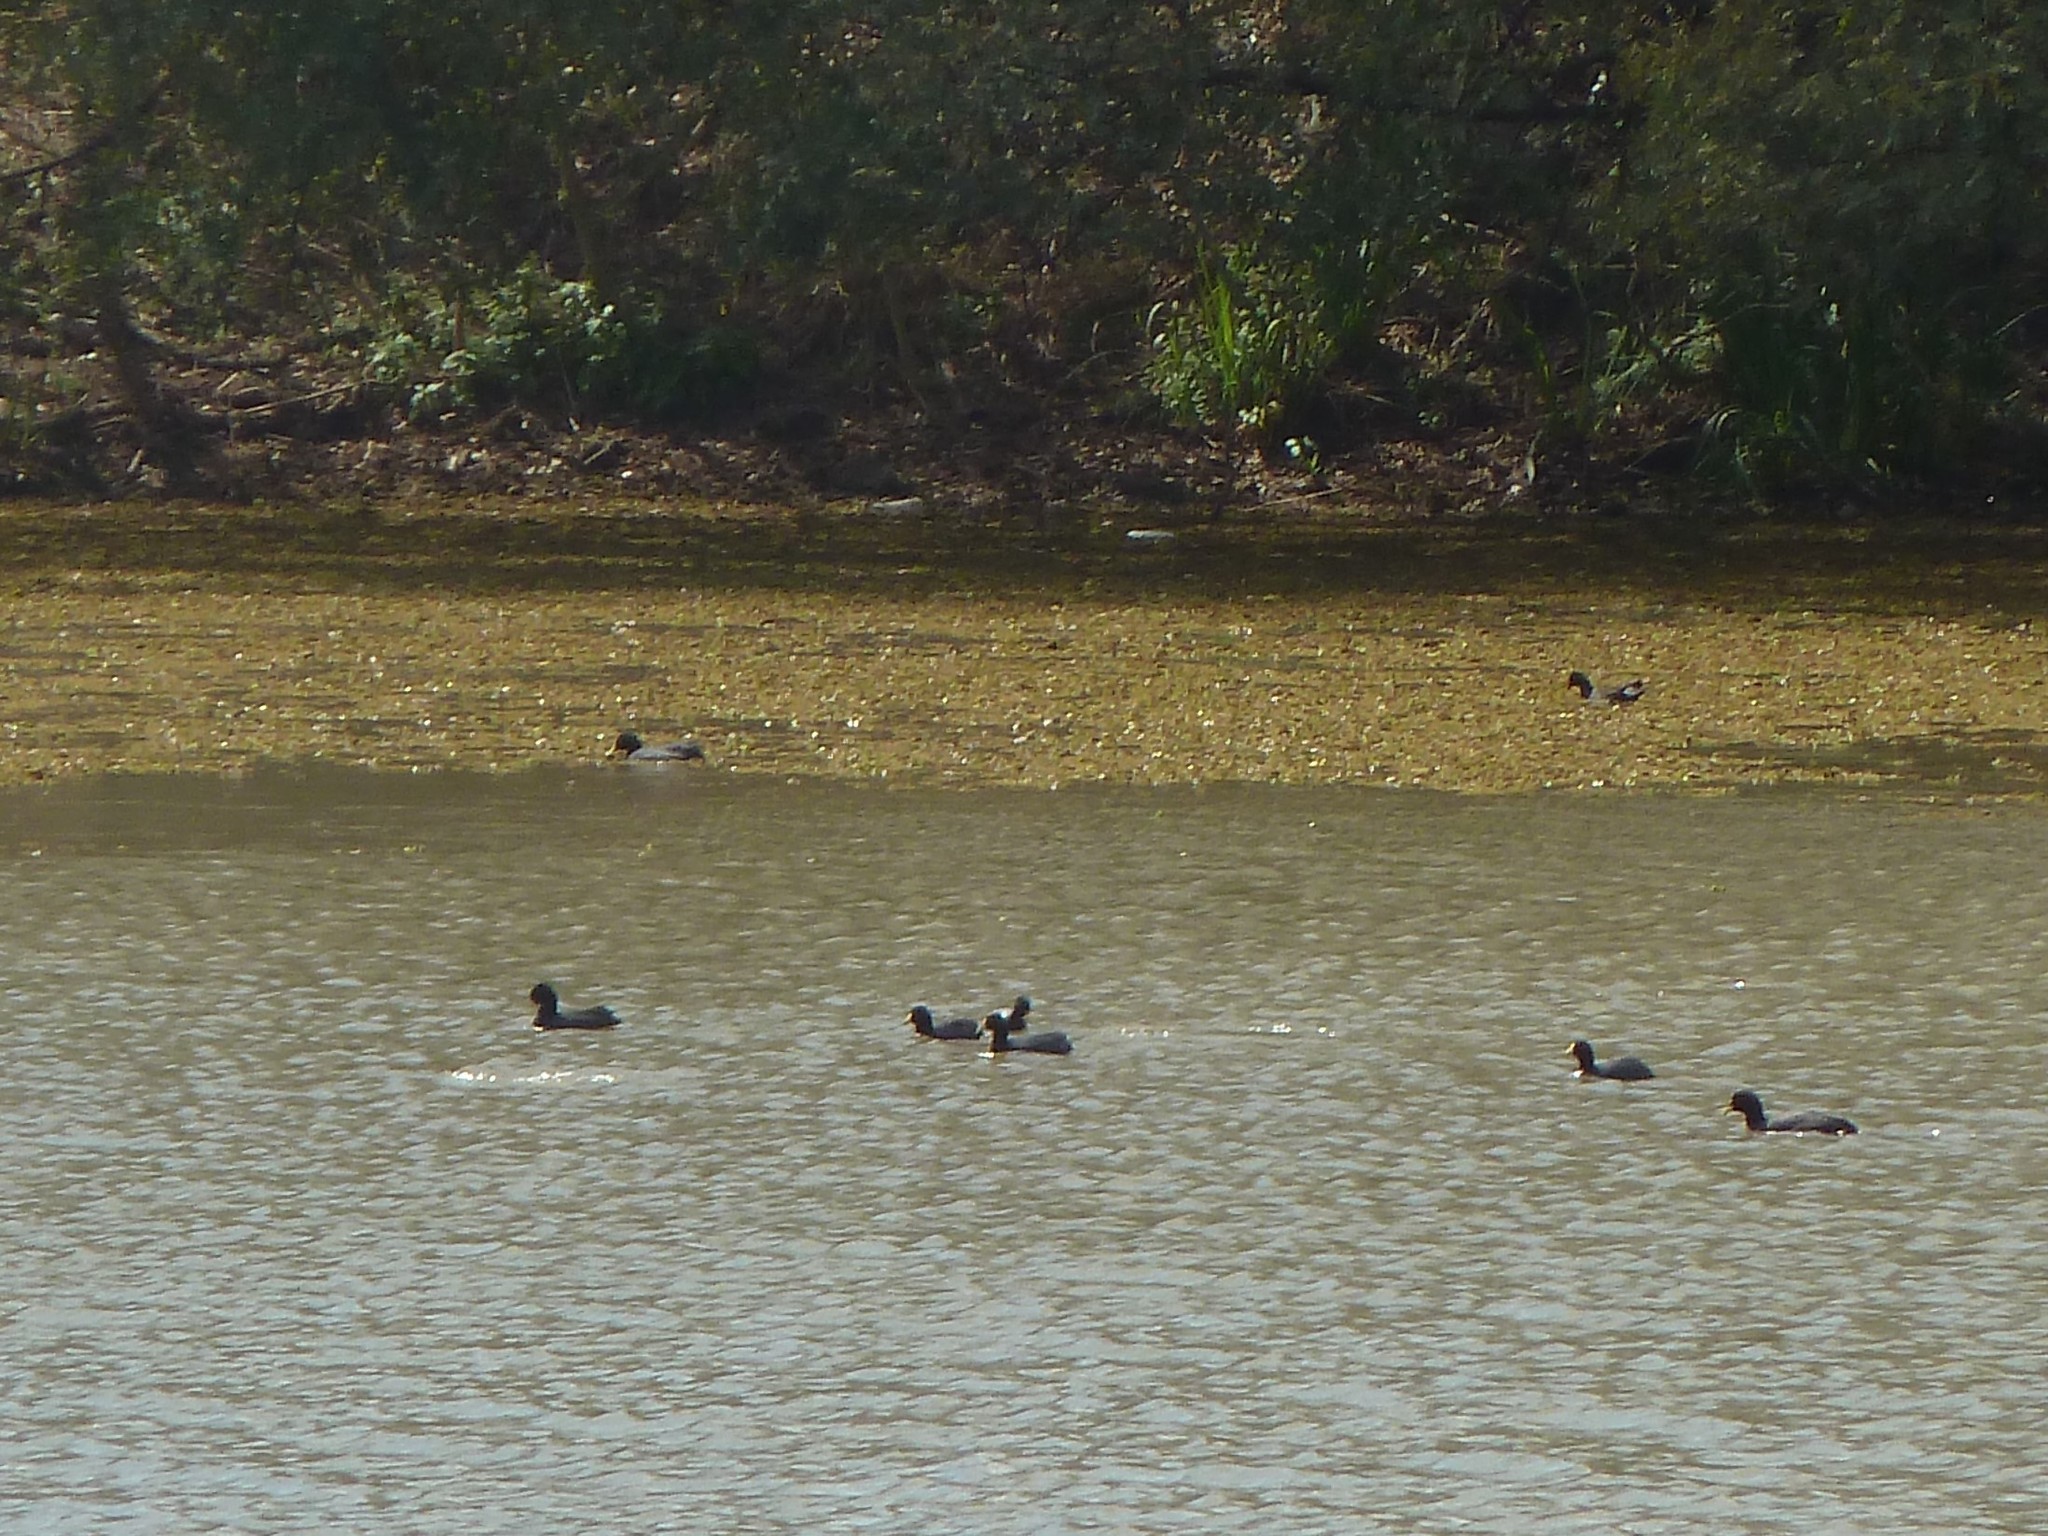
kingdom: Animalia
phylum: Chordata
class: Aves
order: Gruiformes
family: Rallidae
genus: Fulica
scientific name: Fulica leucoptera
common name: White-winged coot
